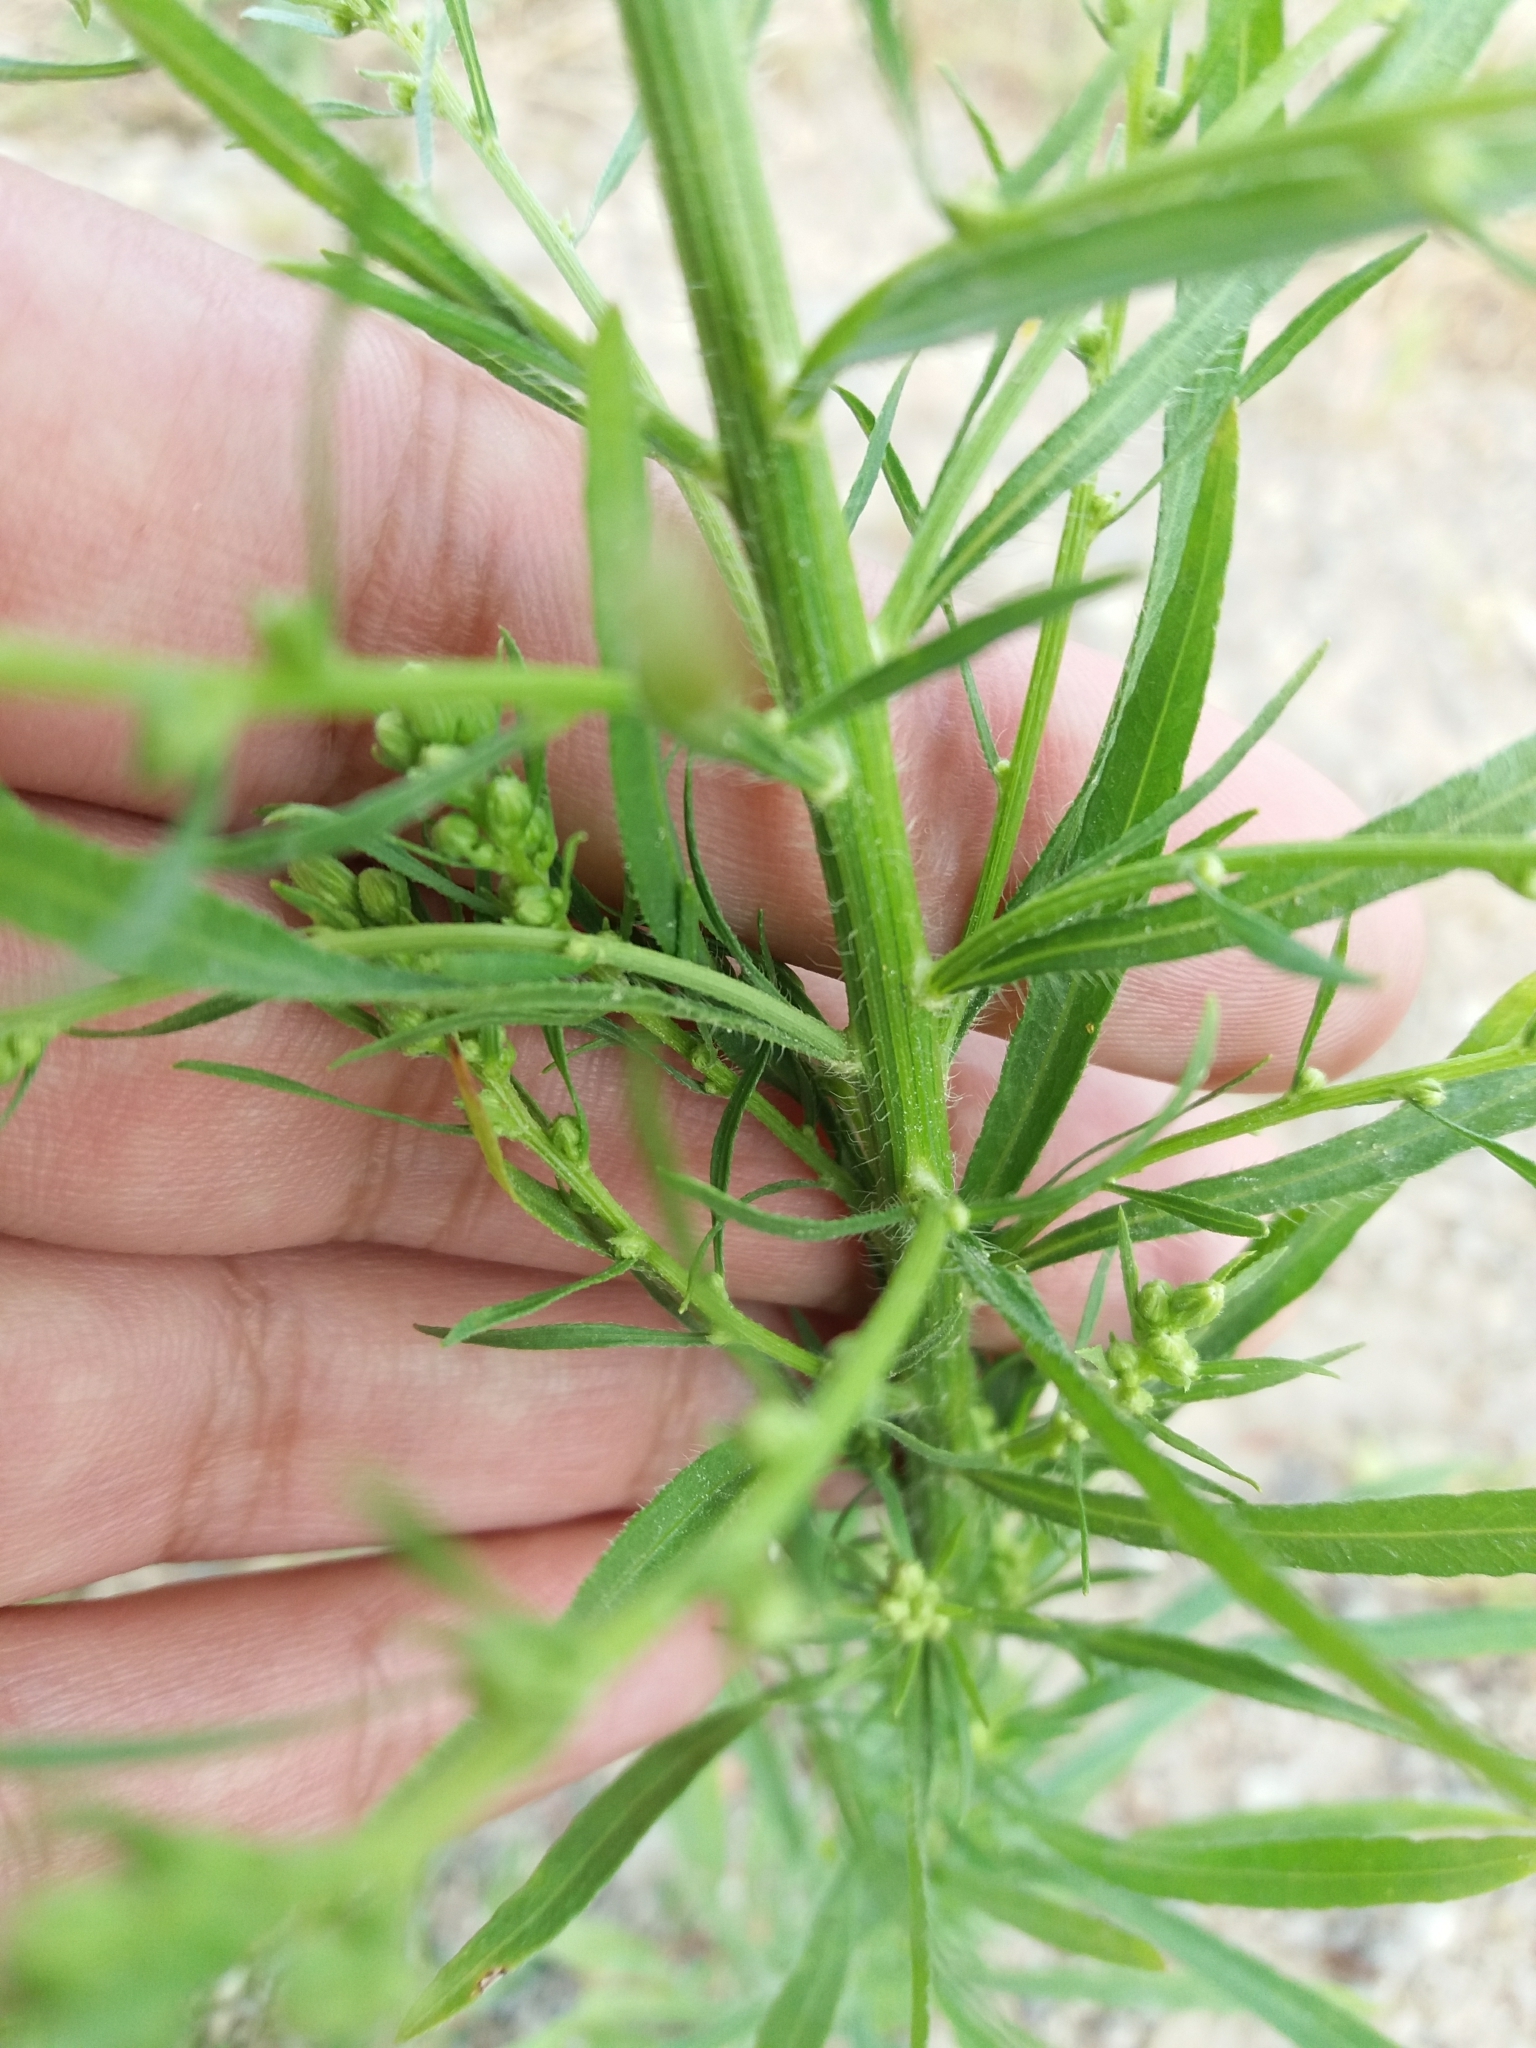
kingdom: Plantae
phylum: Tracheophyta
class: Magnoliopsida
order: Asterales
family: Asteraceae
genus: Erigeron
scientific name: Erigeron canadensis
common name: Canadian fleabane
